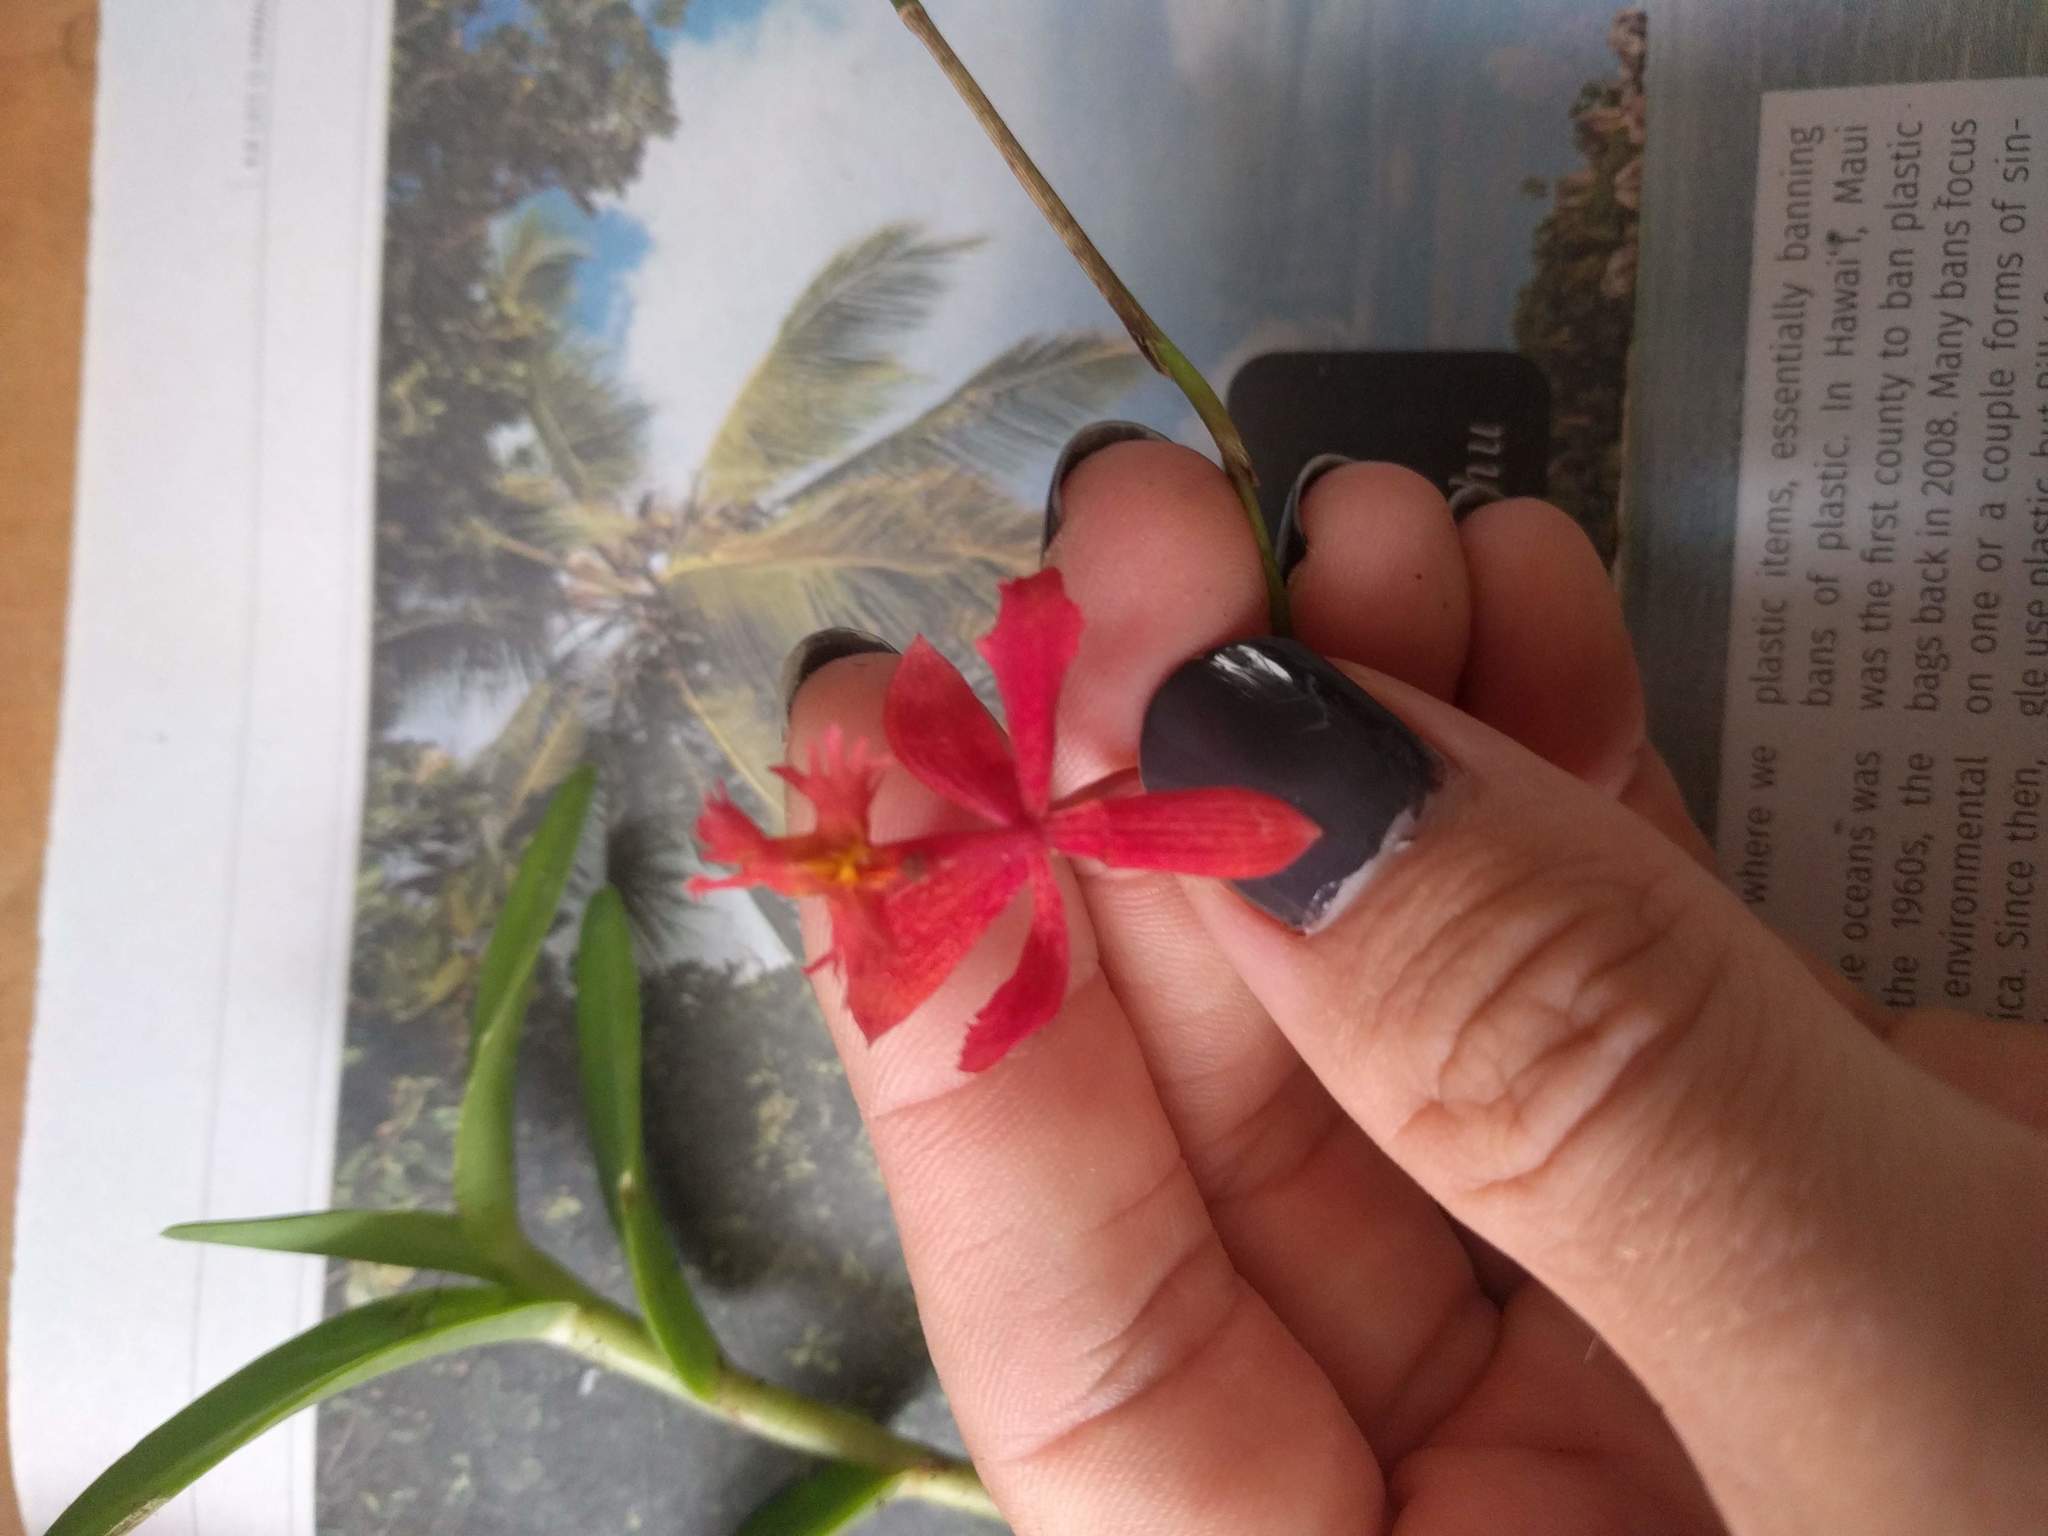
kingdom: Plantae
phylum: Tracheophyta
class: Liliopsida
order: Asparagales
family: Orchidaceae
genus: Epidendrum
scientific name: Epidendrum obrienianum
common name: O'brien's star orchid
